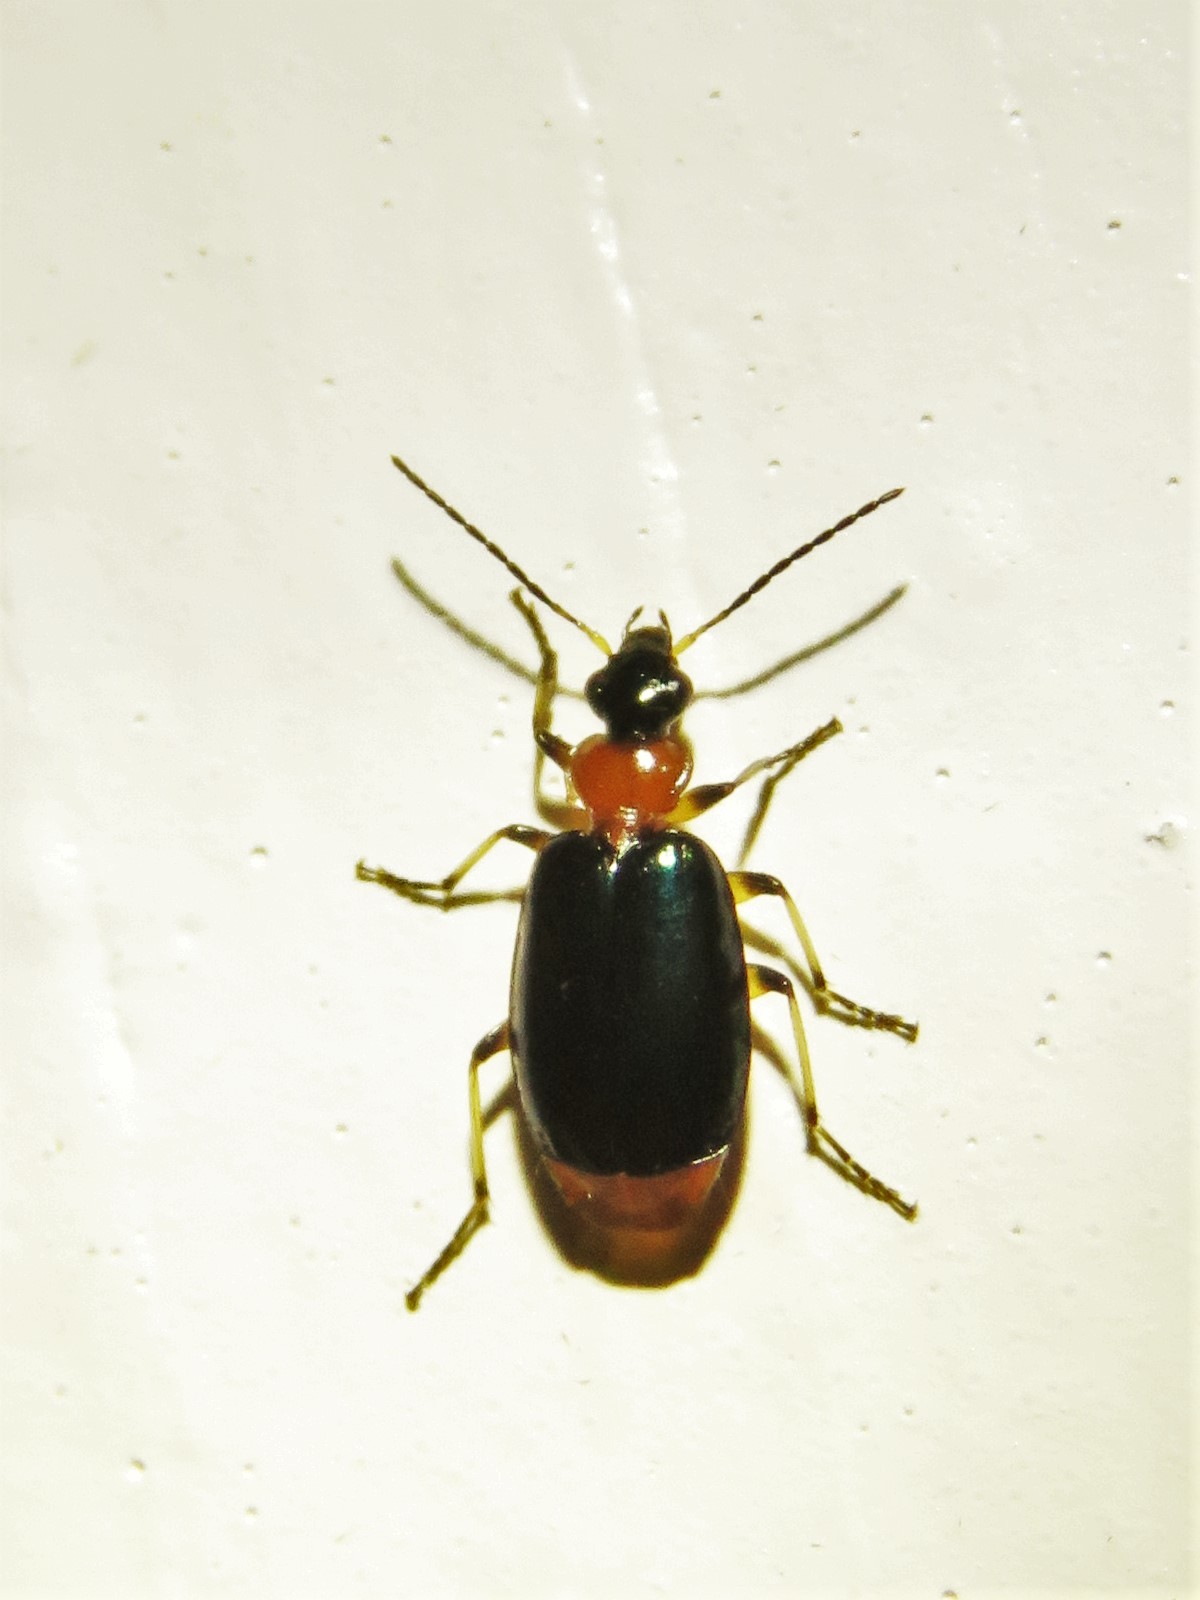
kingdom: Animalia
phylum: Arthropoda
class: Insecta
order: Coleoptera
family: Carabidae
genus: Lebia
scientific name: Lebia viridipennis
